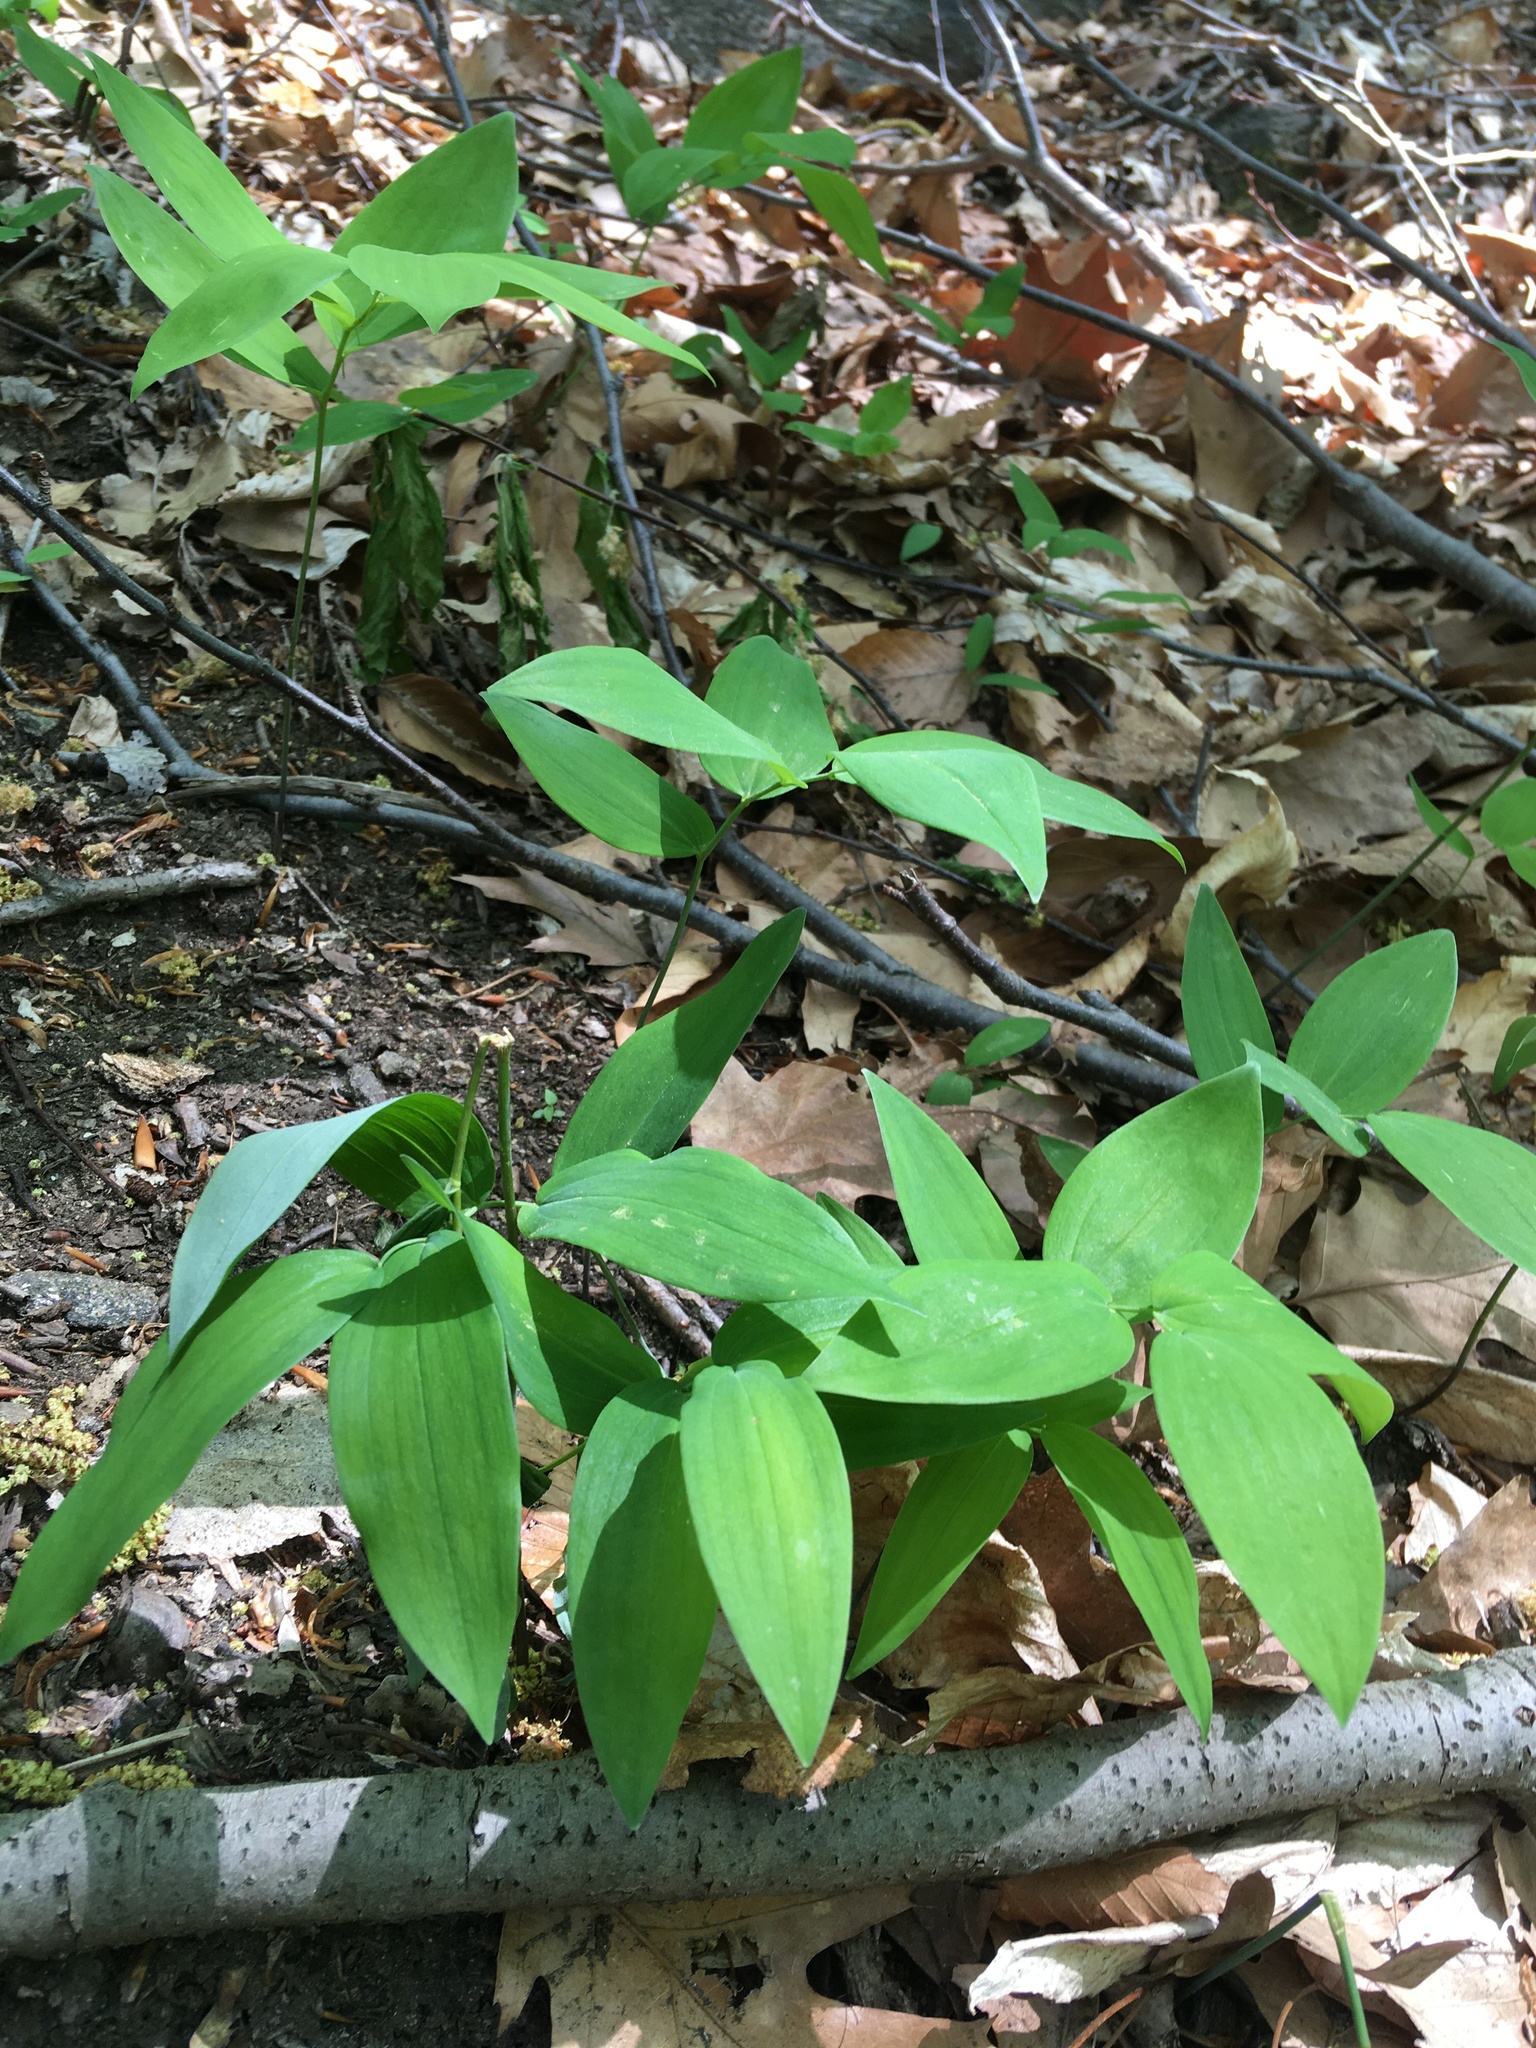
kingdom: Plantae
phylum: Tracheophyta
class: Liliopsida
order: Asparagales
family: Asparagaceae
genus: Polygonatum
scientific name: Polygonatum pubescens
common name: Downy solomon's seal
